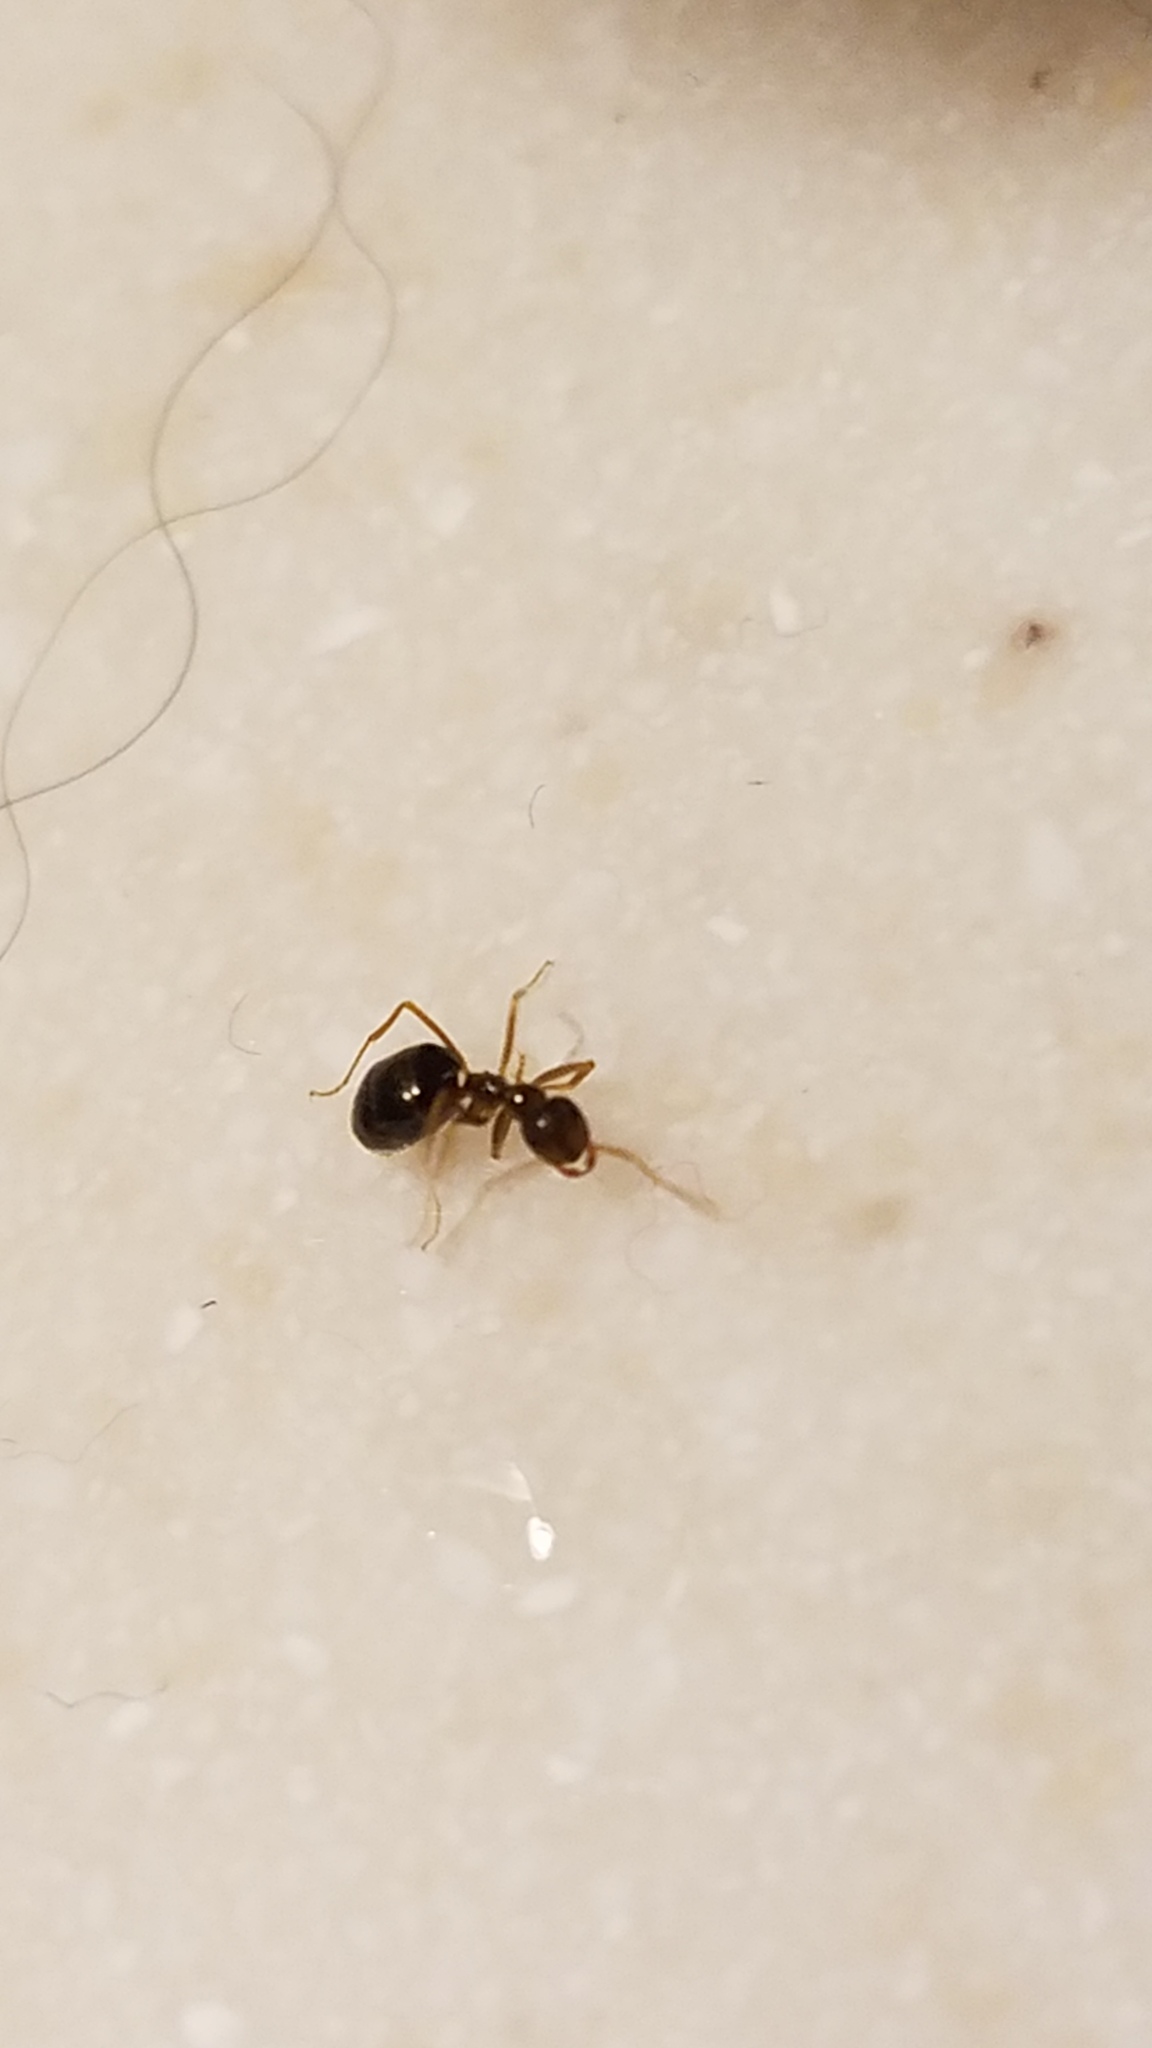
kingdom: Animalia
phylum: Arthropoda
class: Insecta
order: Hymenoptera
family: Formicidae
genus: Prenolepis
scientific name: Prenolepis imparis
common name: Small honey ant
